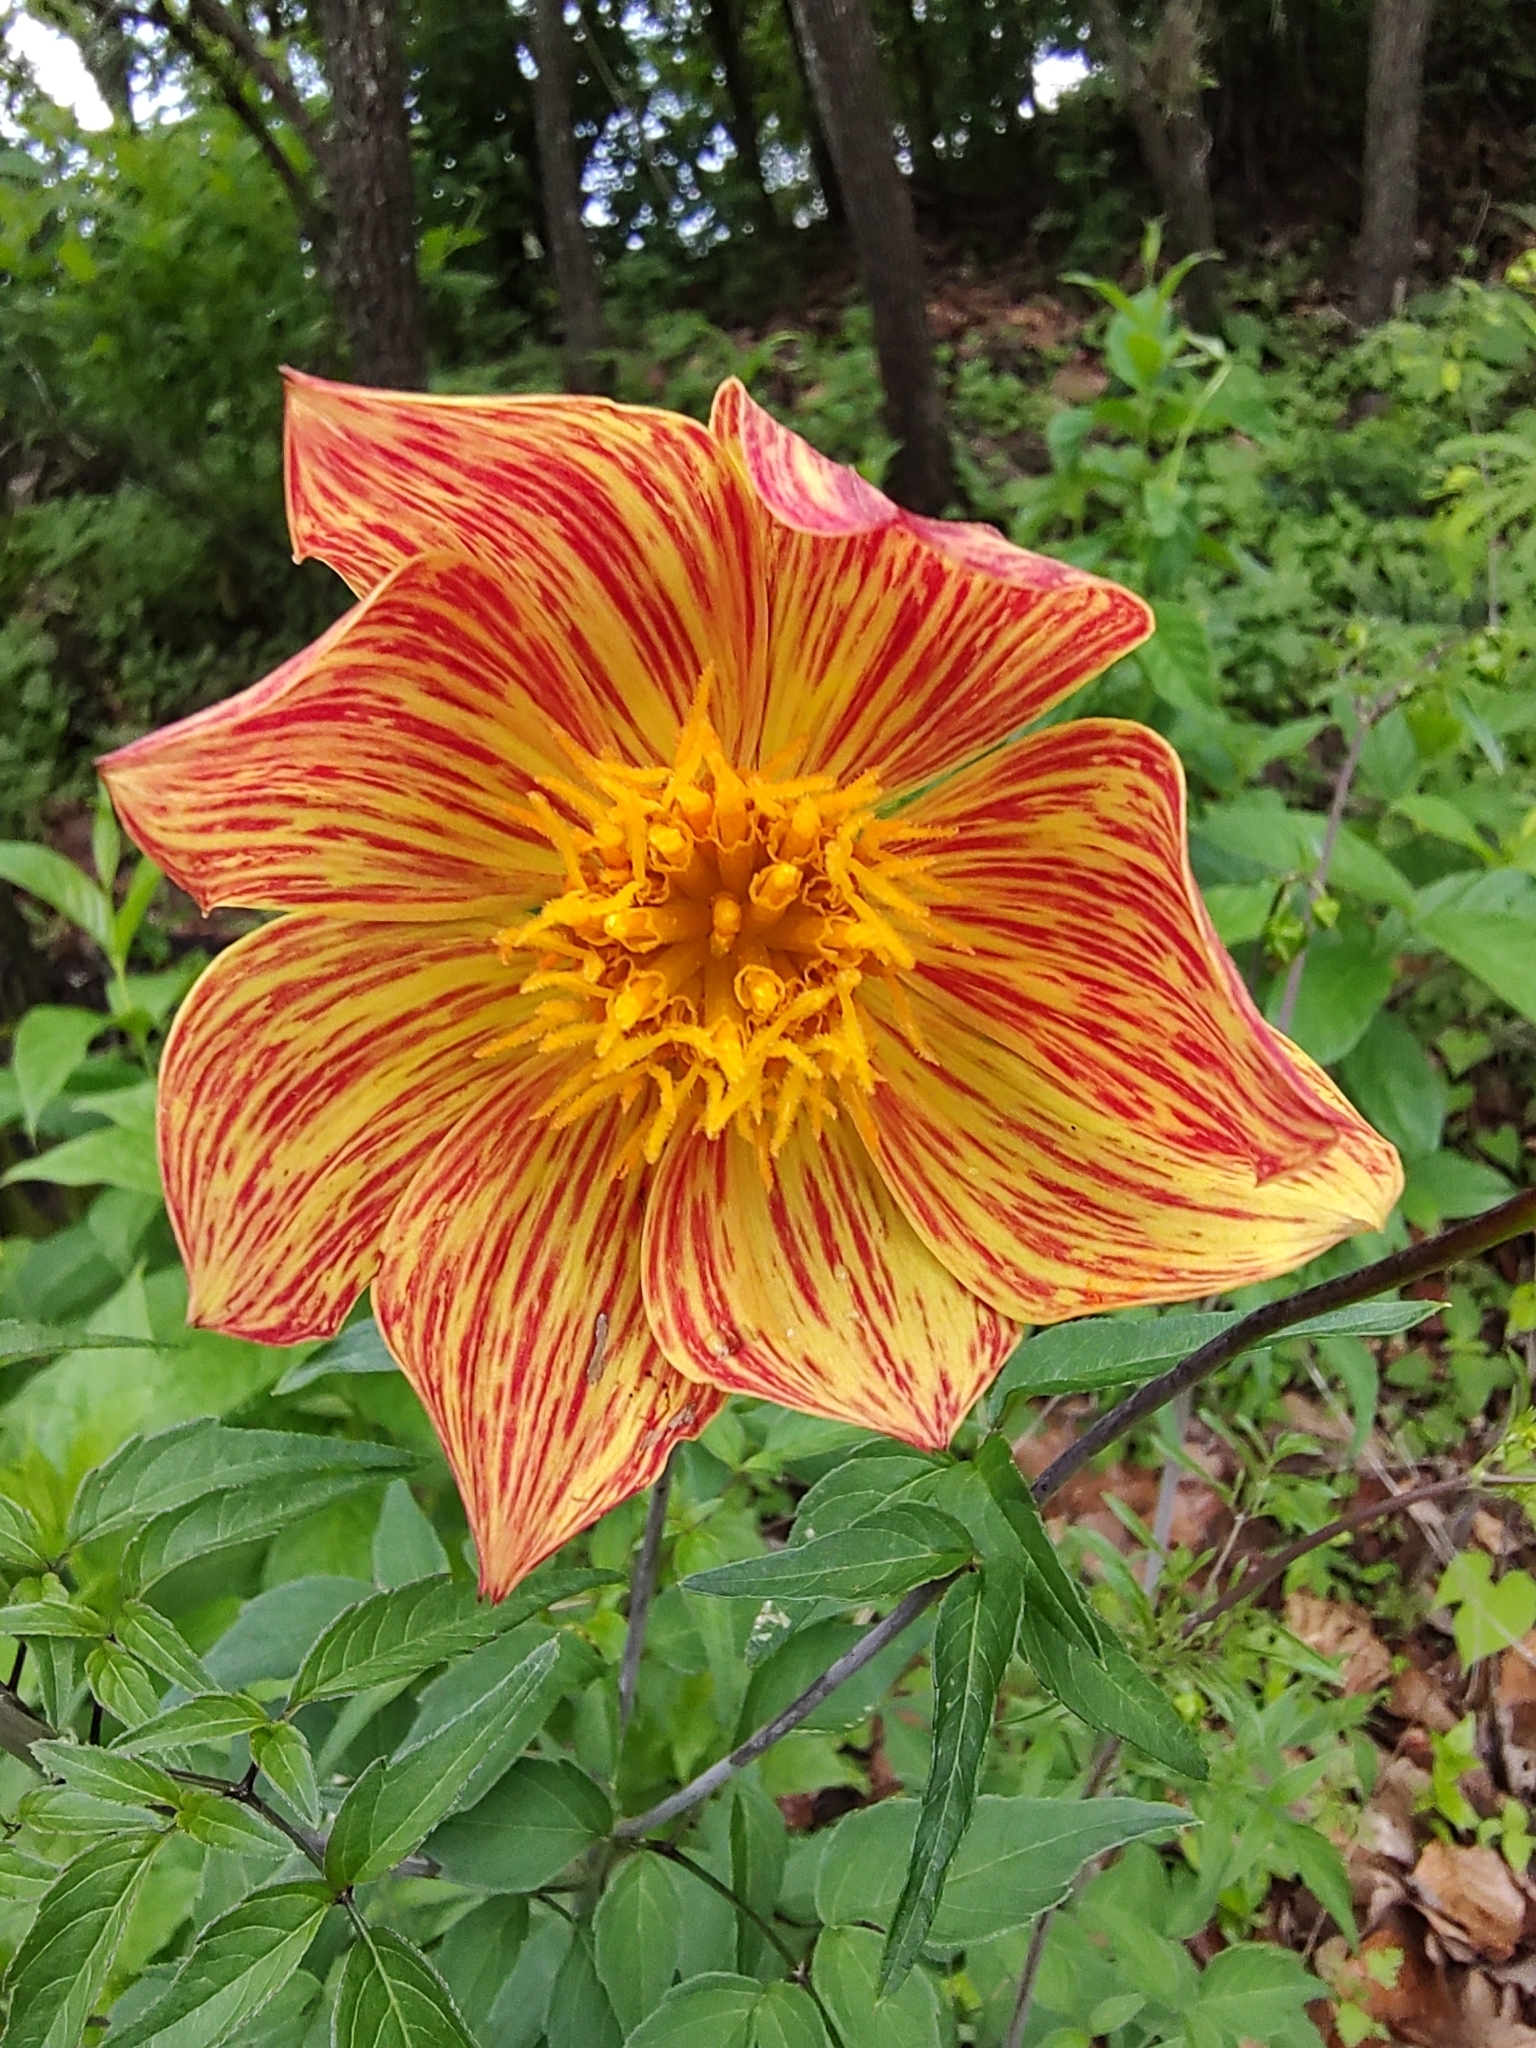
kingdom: Plantae
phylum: Tracheophyta
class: Magnoliopsida
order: Asterales
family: Asteraceae
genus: Dahlia
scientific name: Dahlia coccinea
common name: Red dahlia
